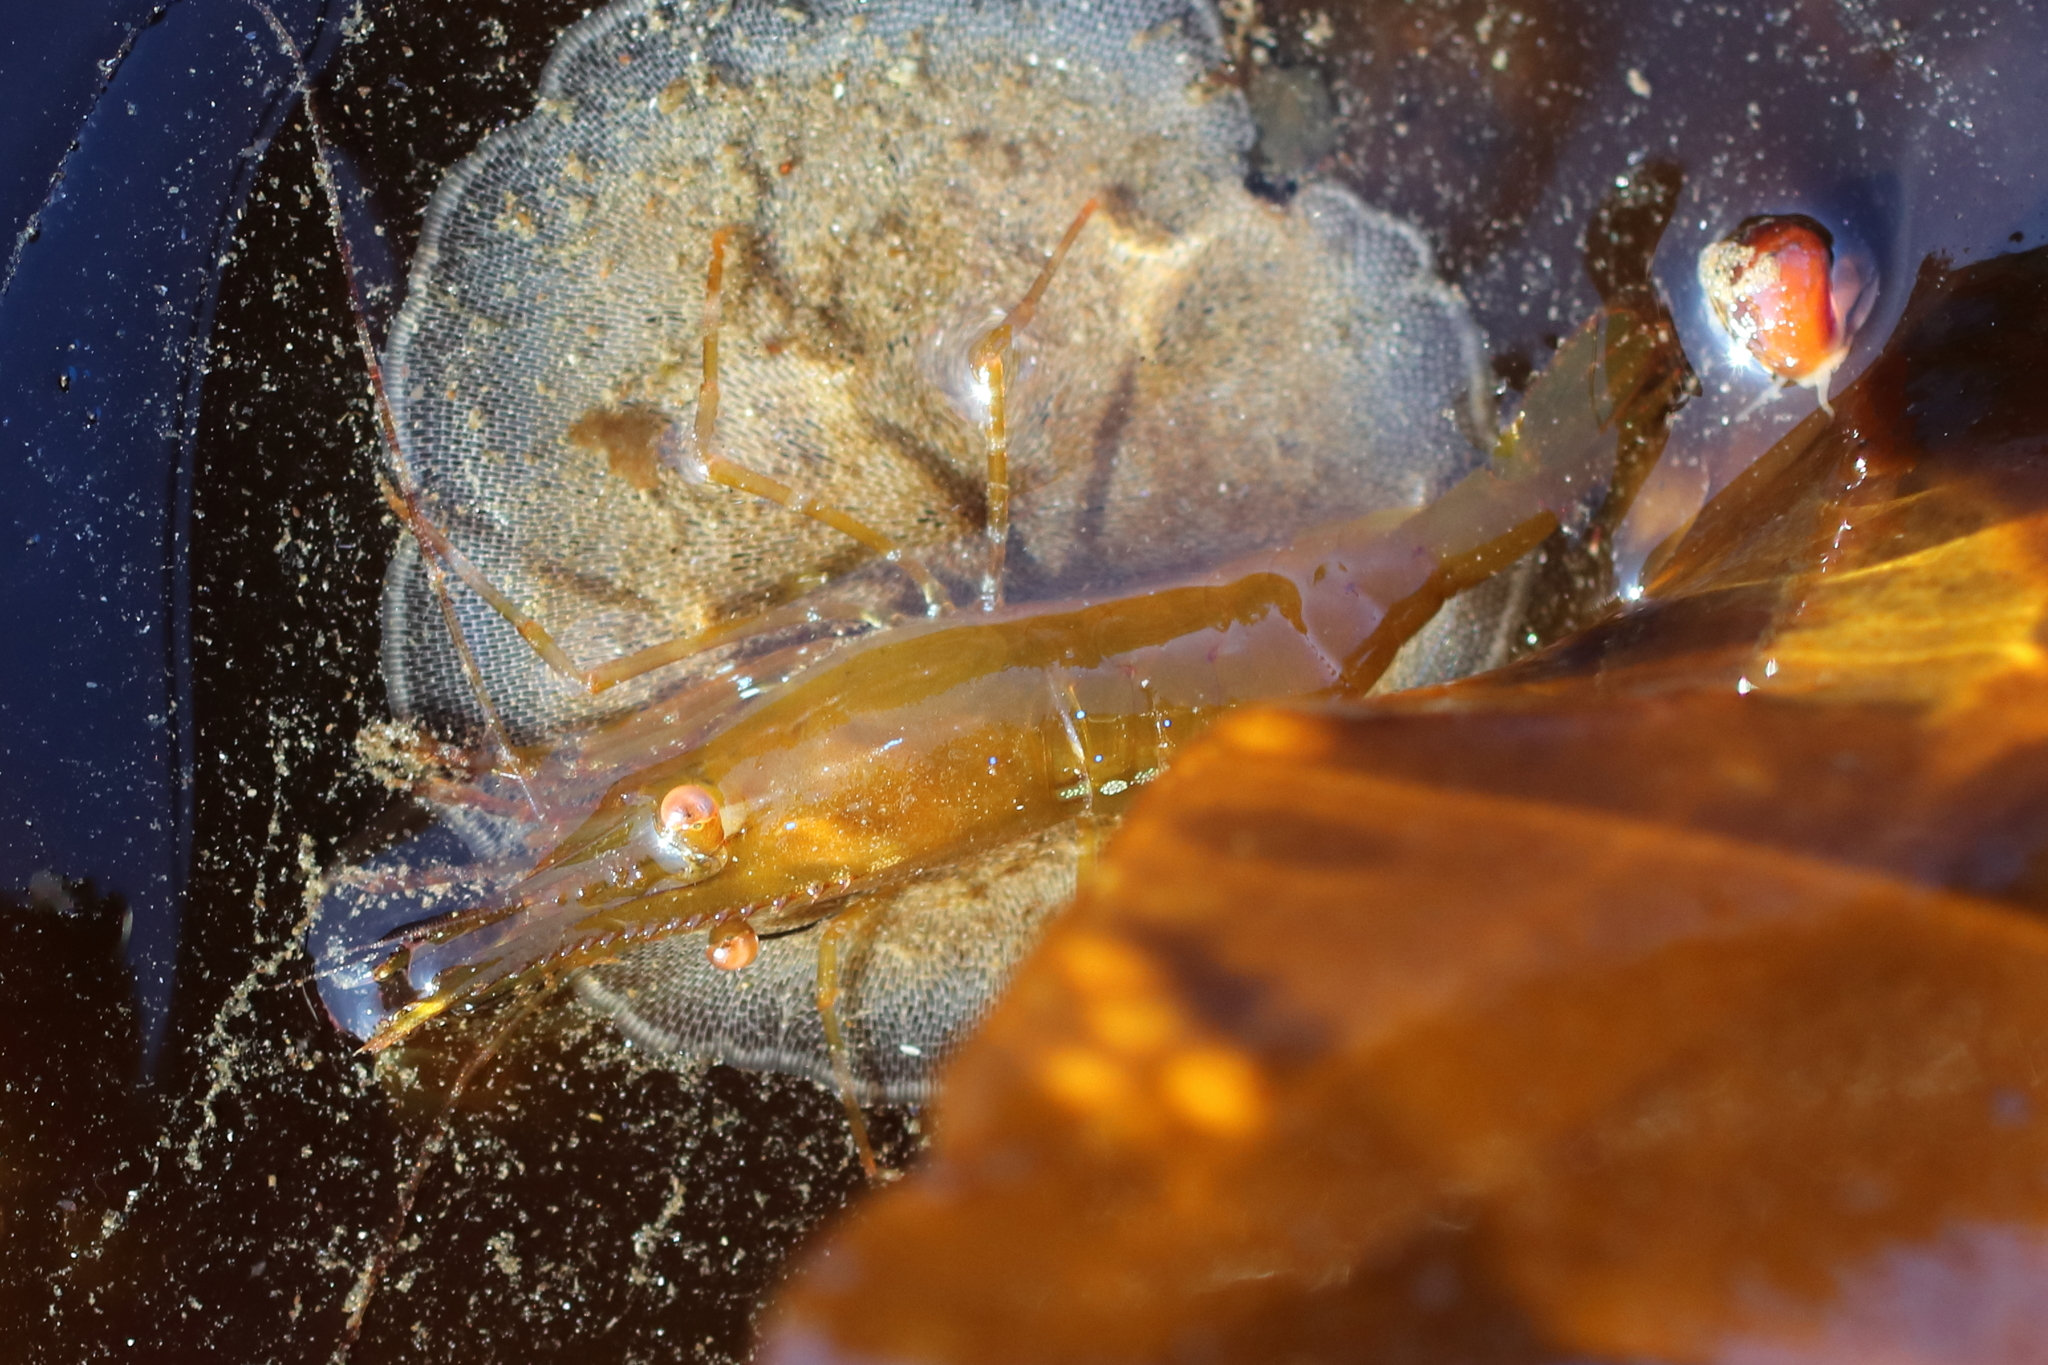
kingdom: Animalia
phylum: Arthropoda
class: Malacostraca
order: Decapoda
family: Pandalidae
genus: Pandalus
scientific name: Pandalus platyceros
